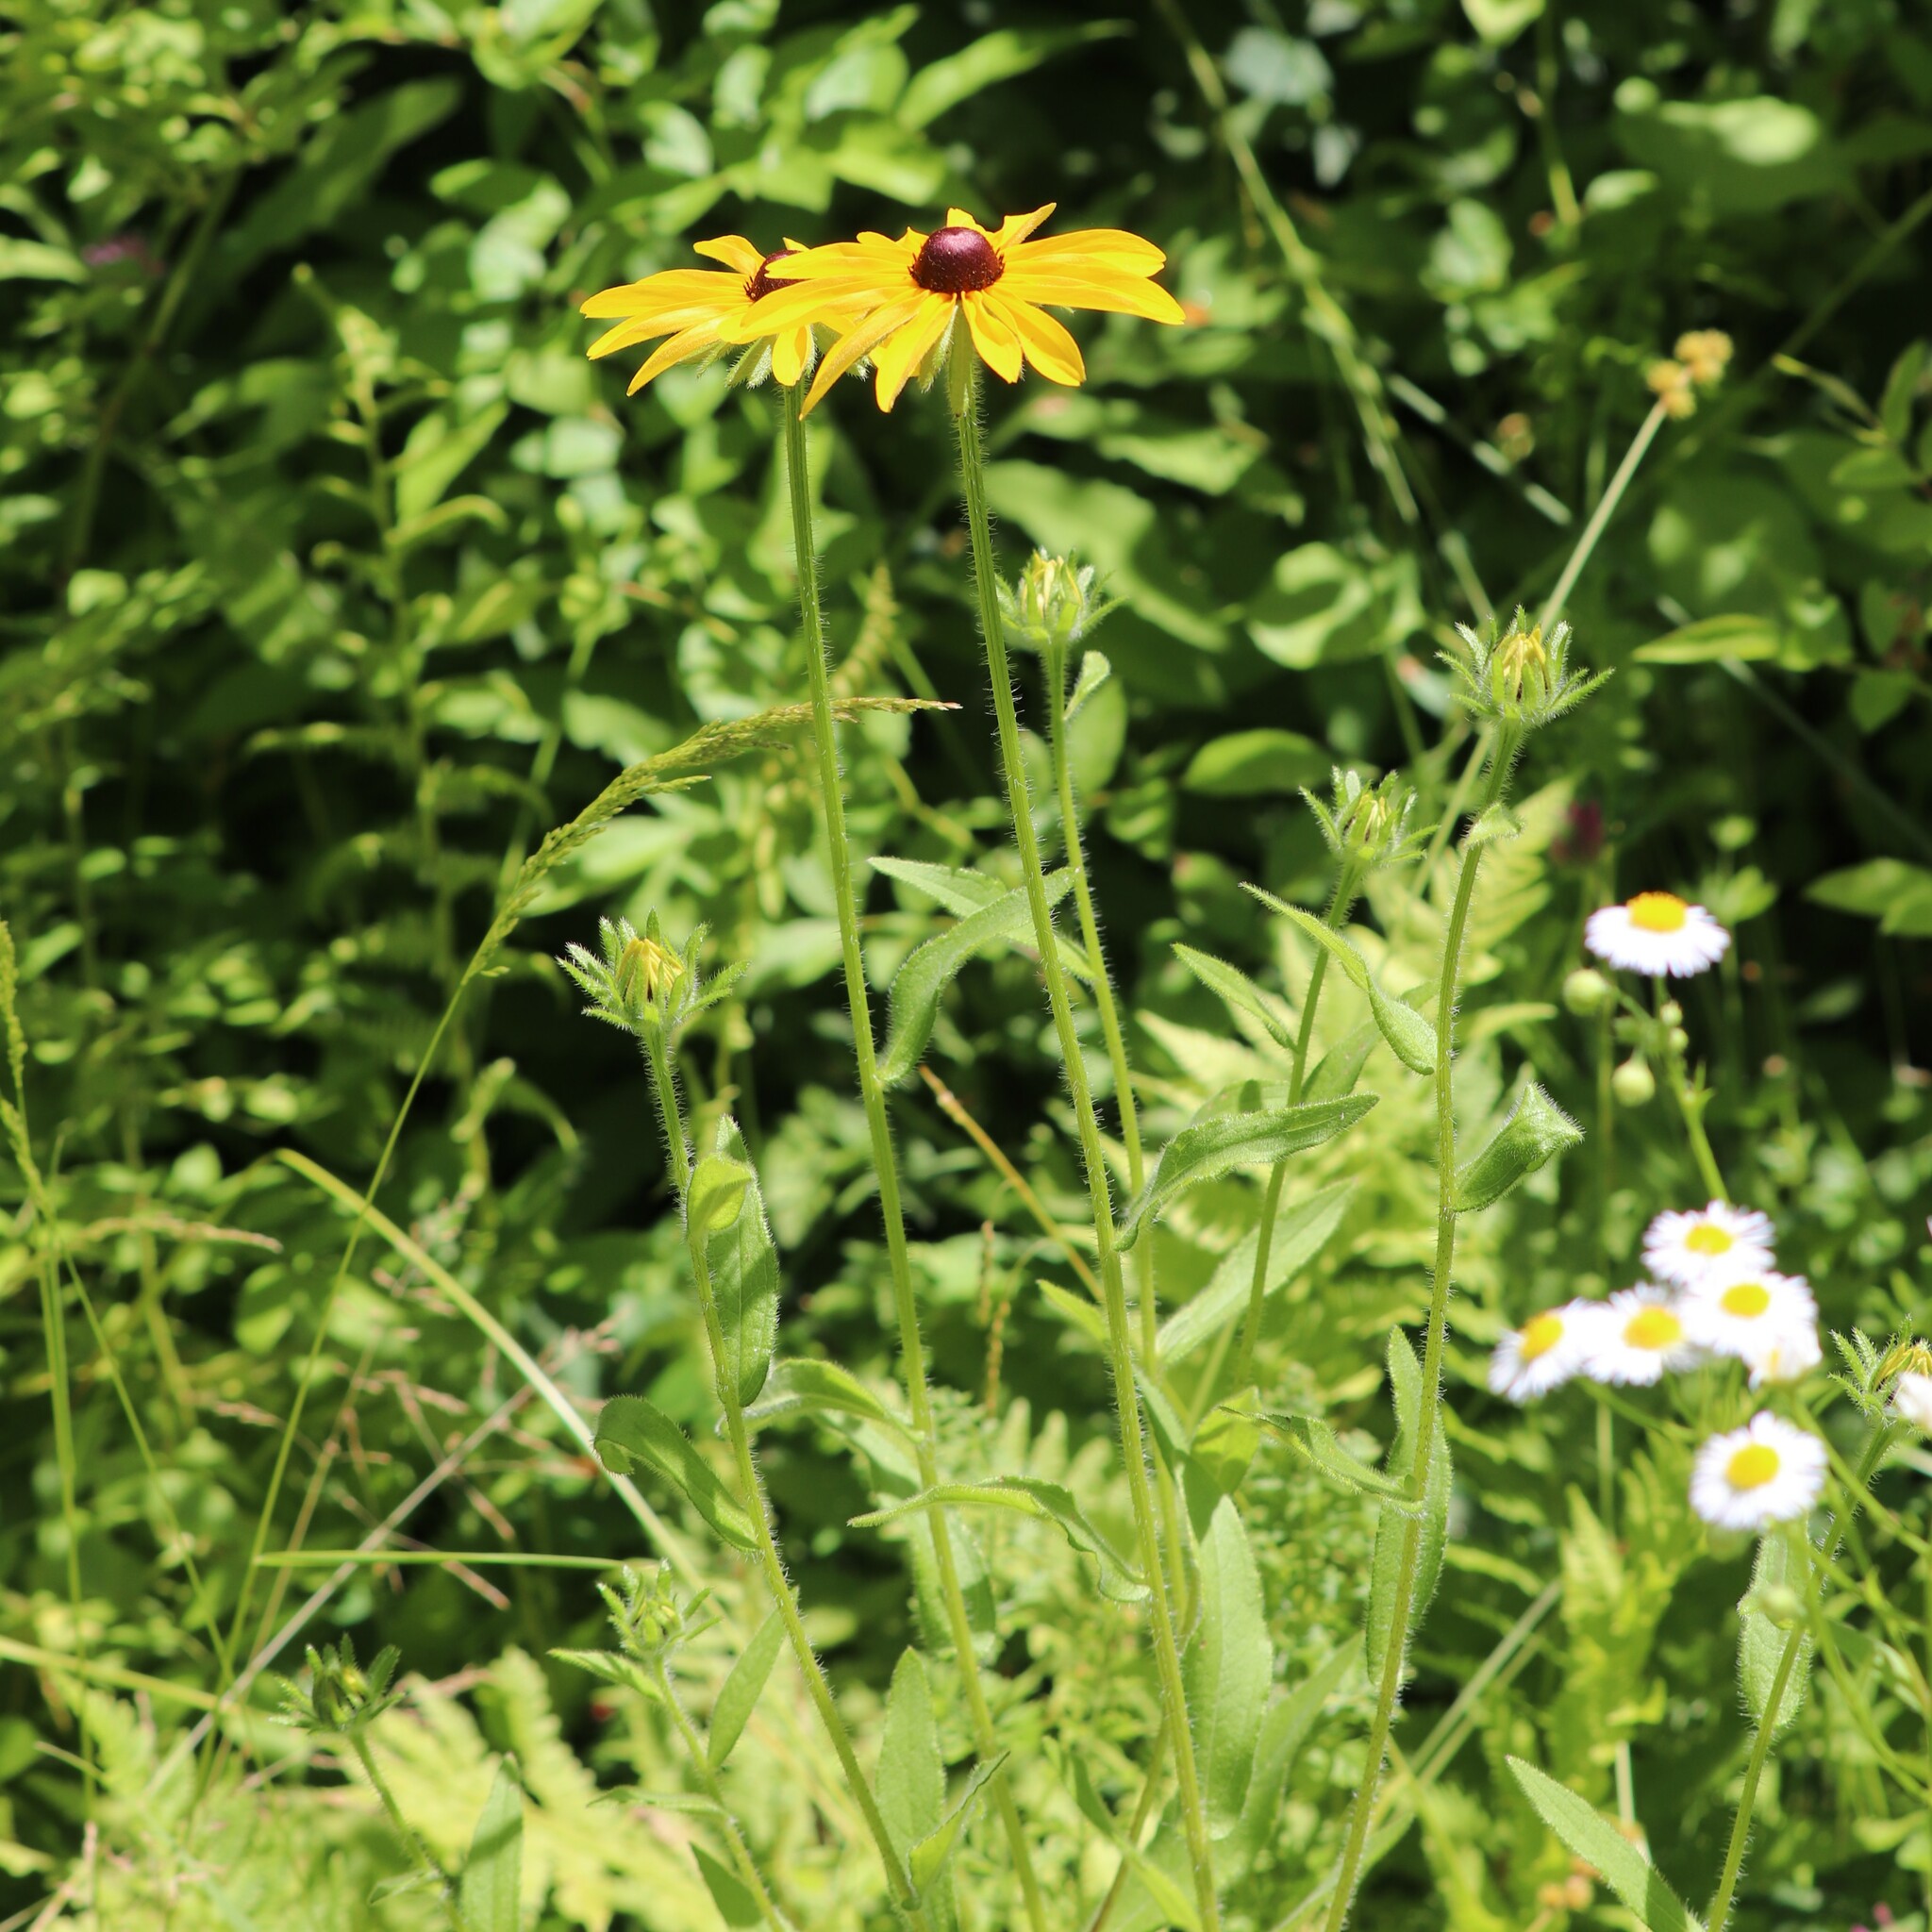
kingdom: Plantae
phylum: Tracheophyta
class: Magnoliopsida
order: Asterales
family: Asteraceae
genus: Rudbeckia
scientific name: Rudbeckia hirta
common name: Black-eyed-susan
